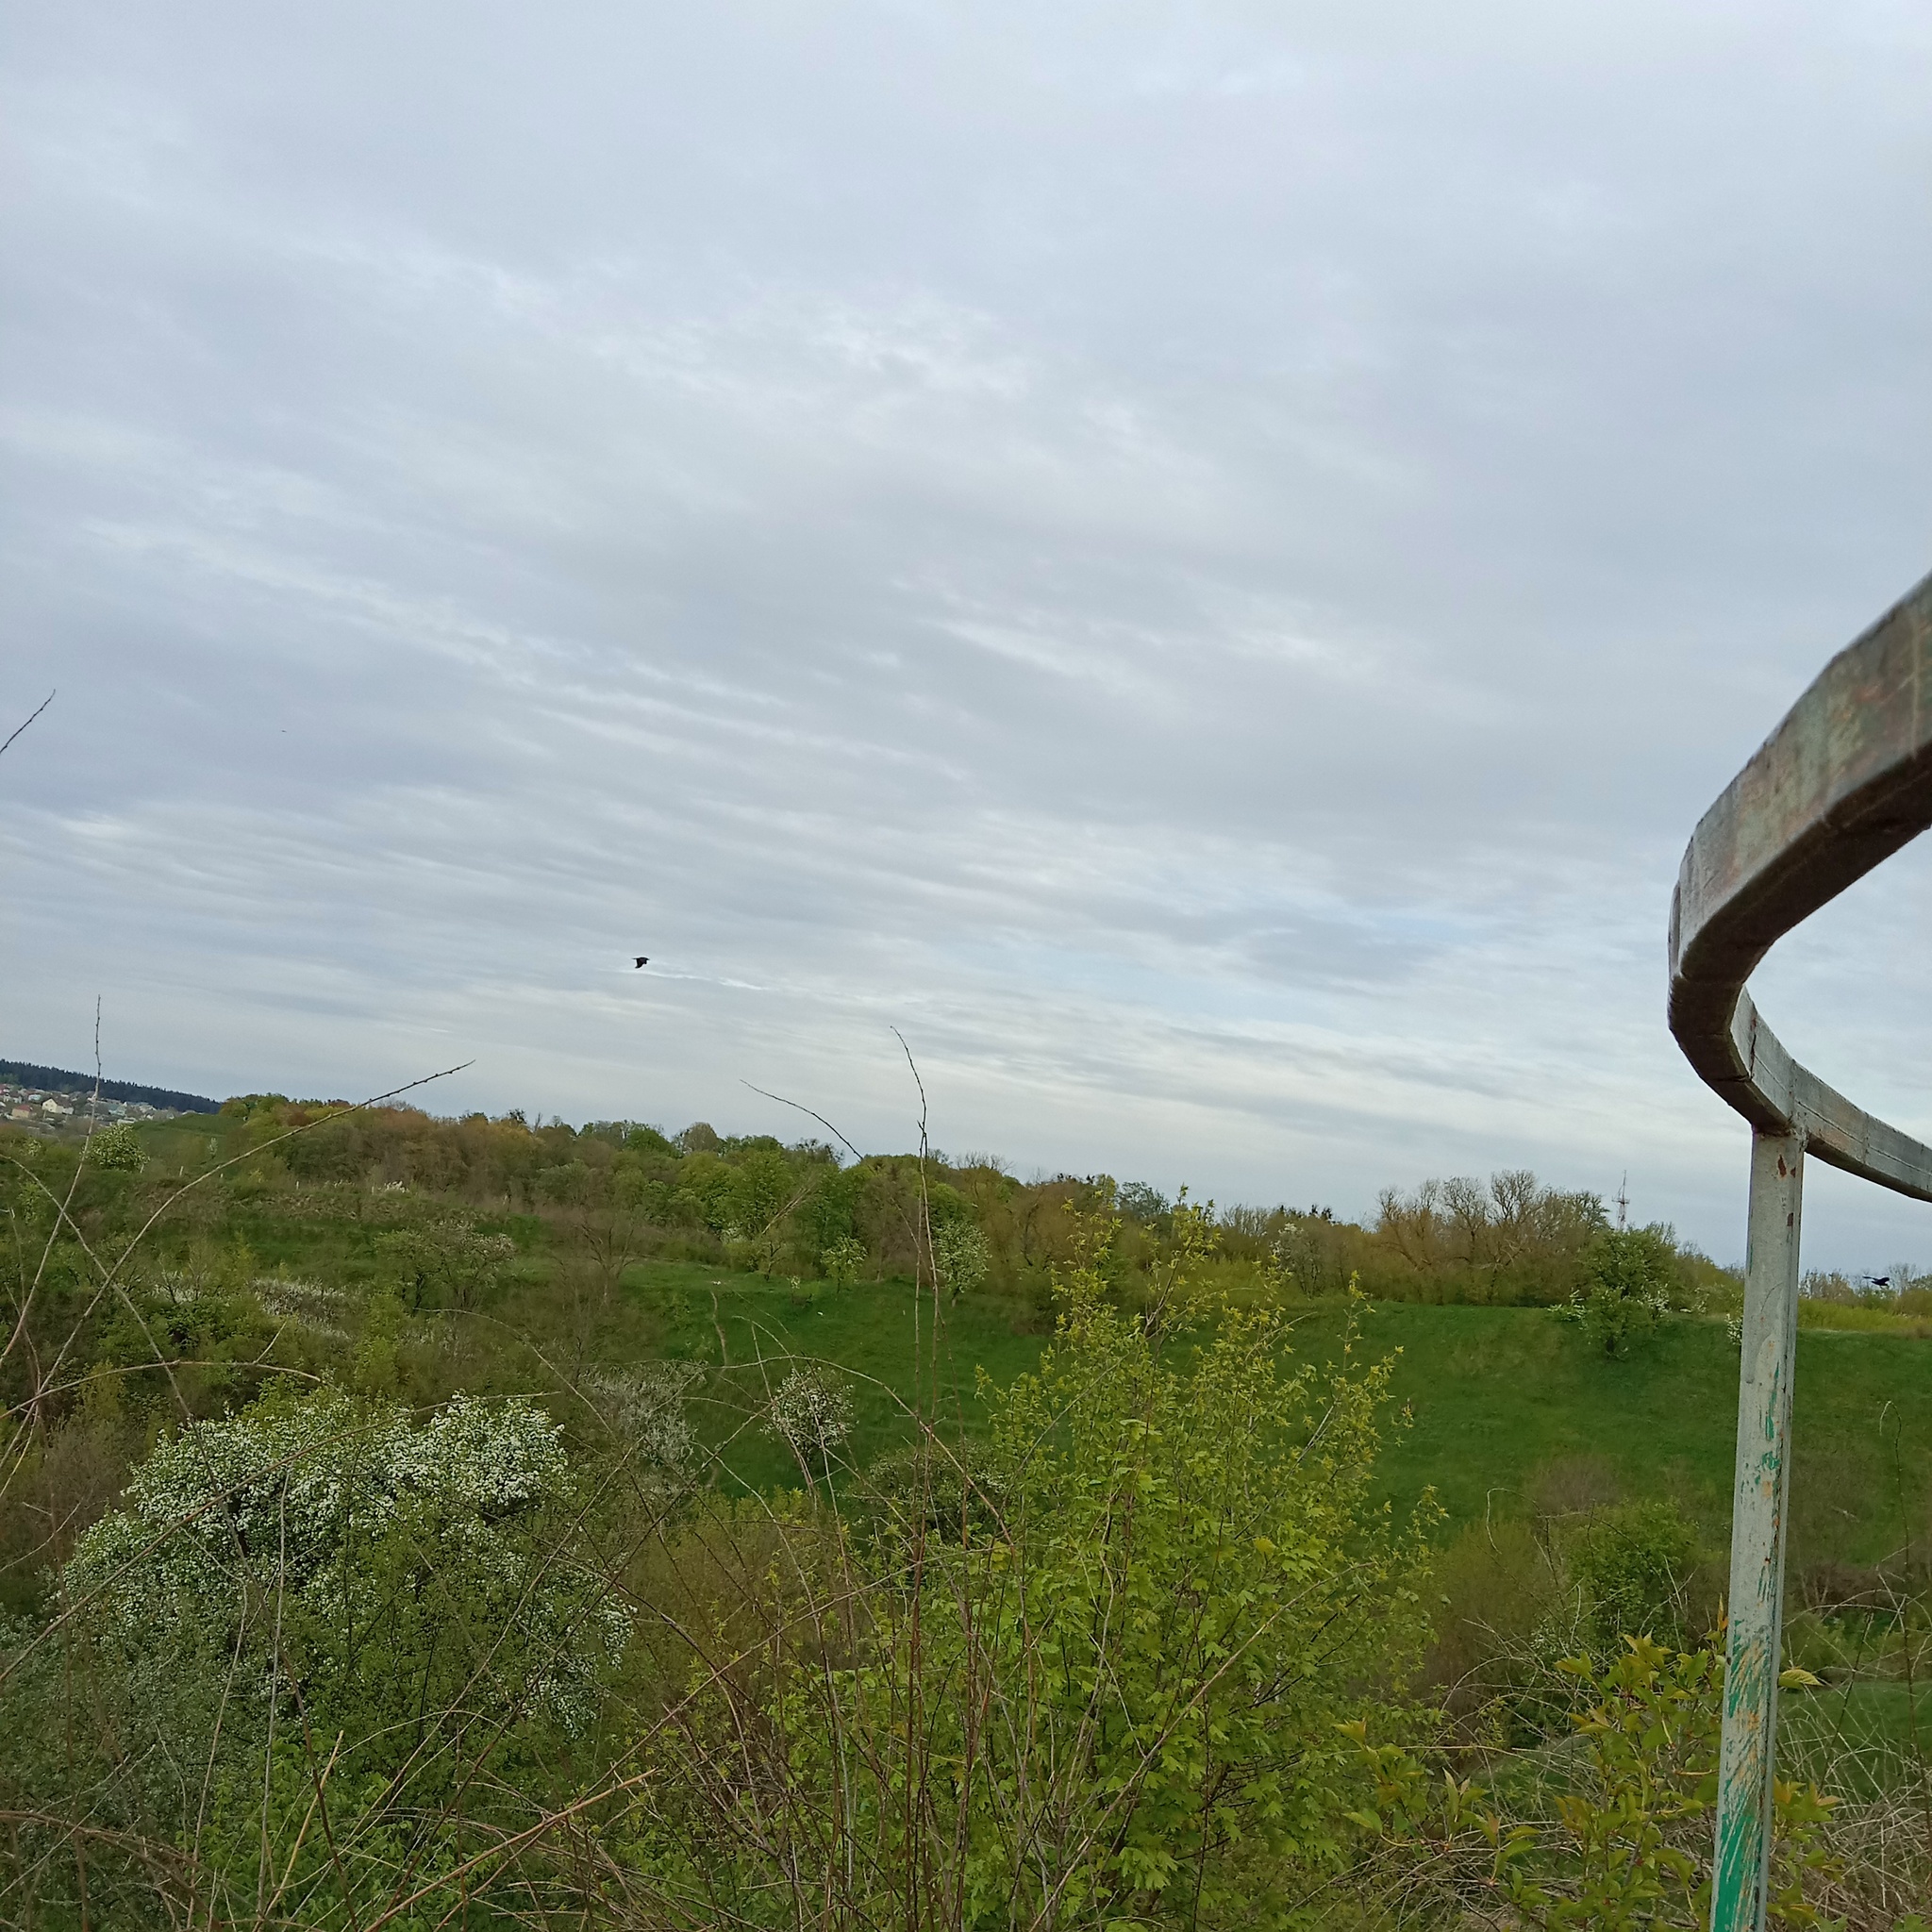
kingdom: Animalia
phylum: Chordata
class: Aves
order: Passeriformes
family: Corvidae
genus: Corvus
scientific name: Corvus corax
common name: Common raven
